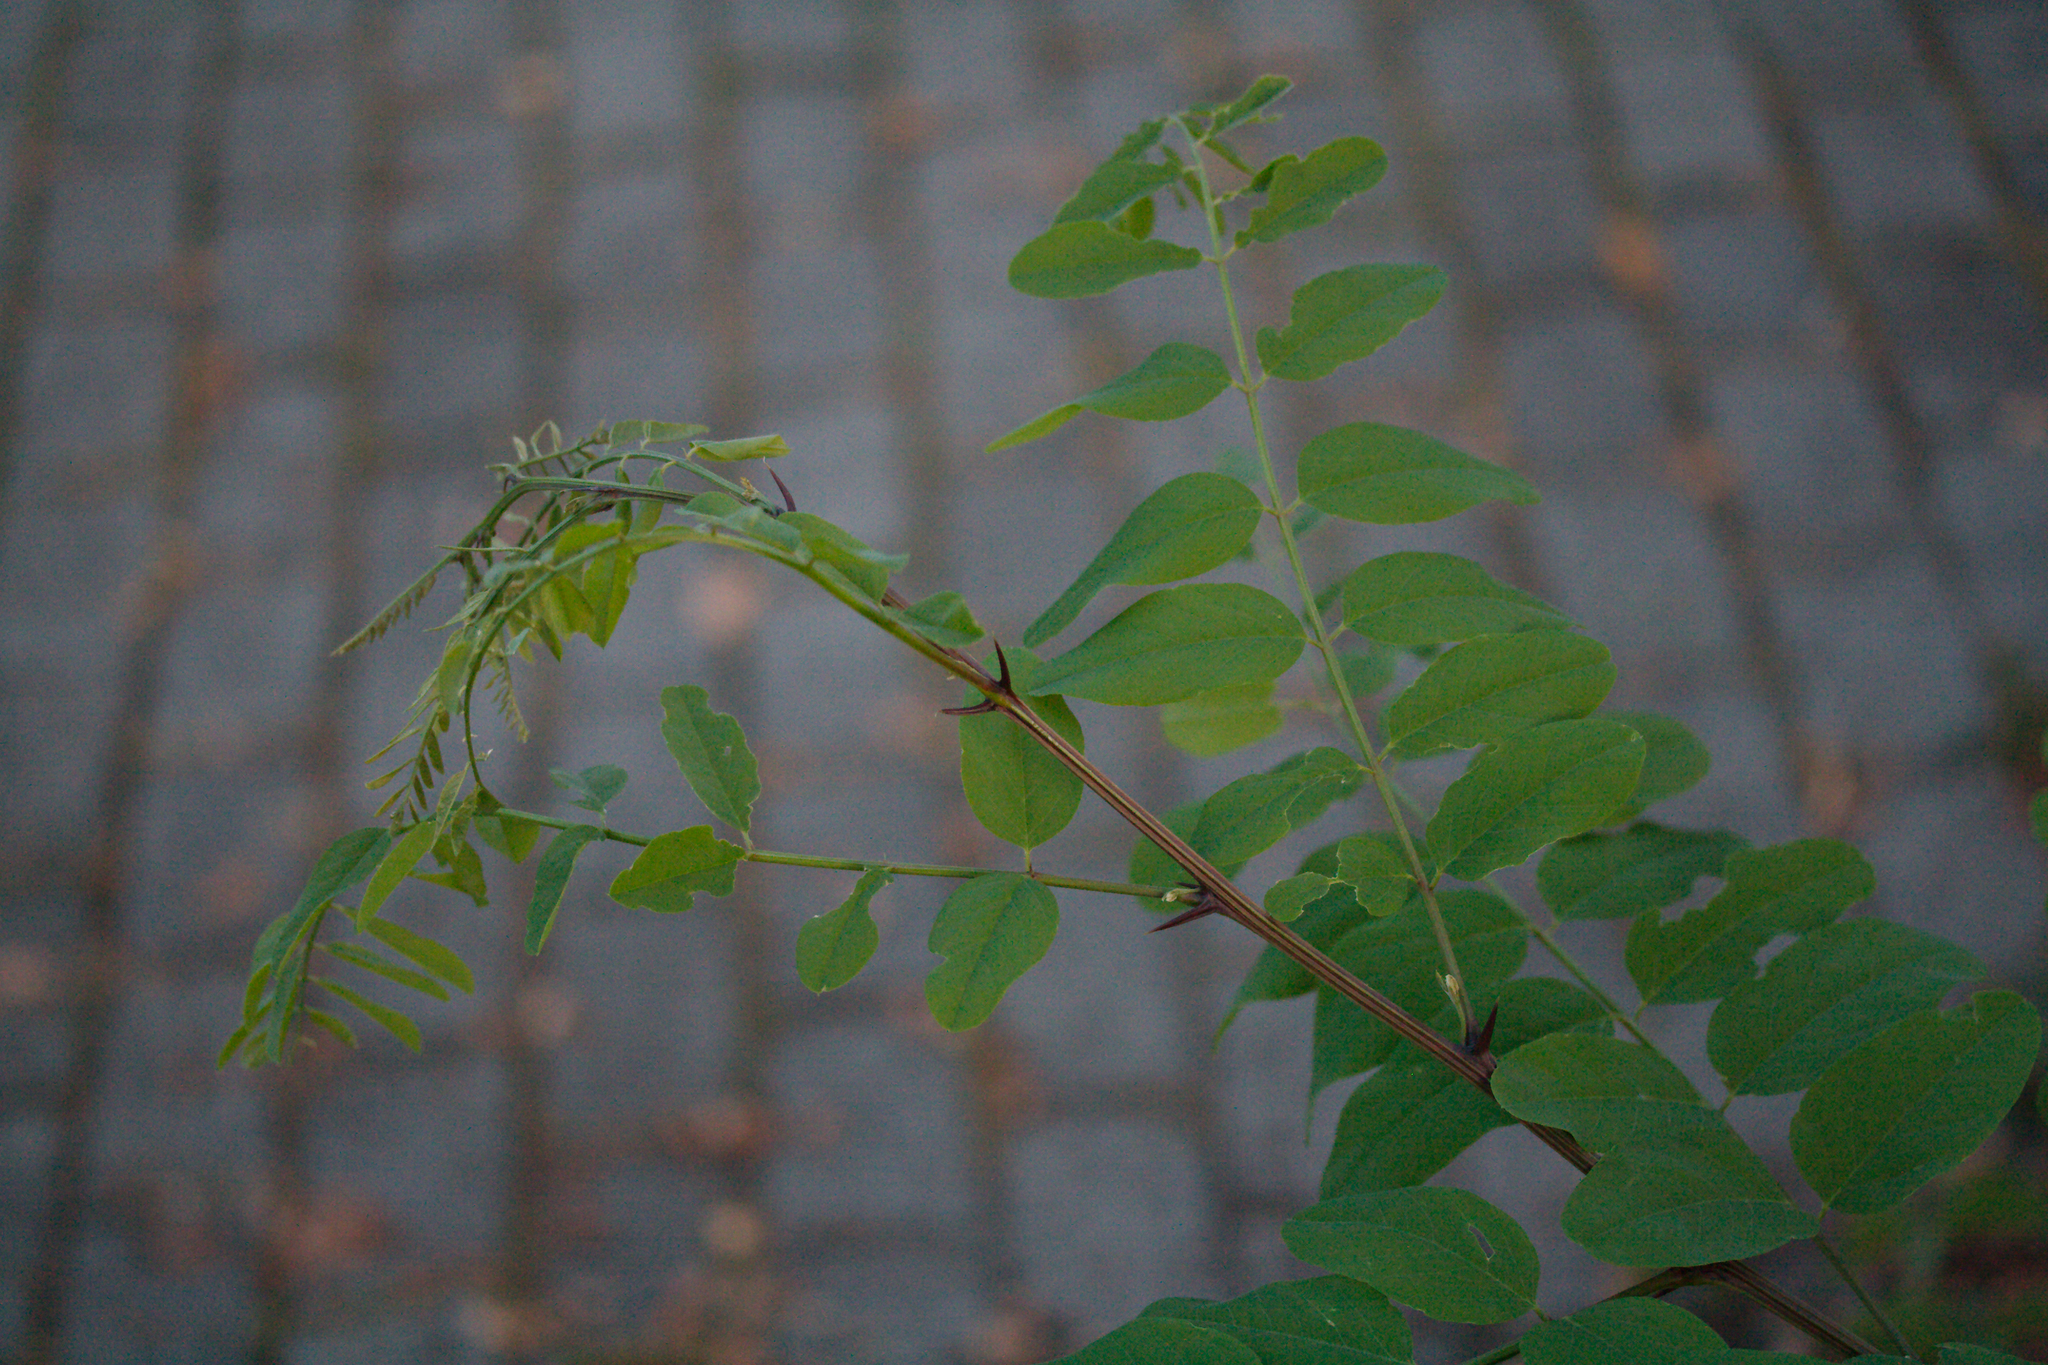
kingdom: Plantae
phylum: Tracheophyta
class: Magnoliopsida
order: Fabales
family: Fabaceae
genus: Robinia
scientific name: Robinia pseudoacacia
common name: Black locust
